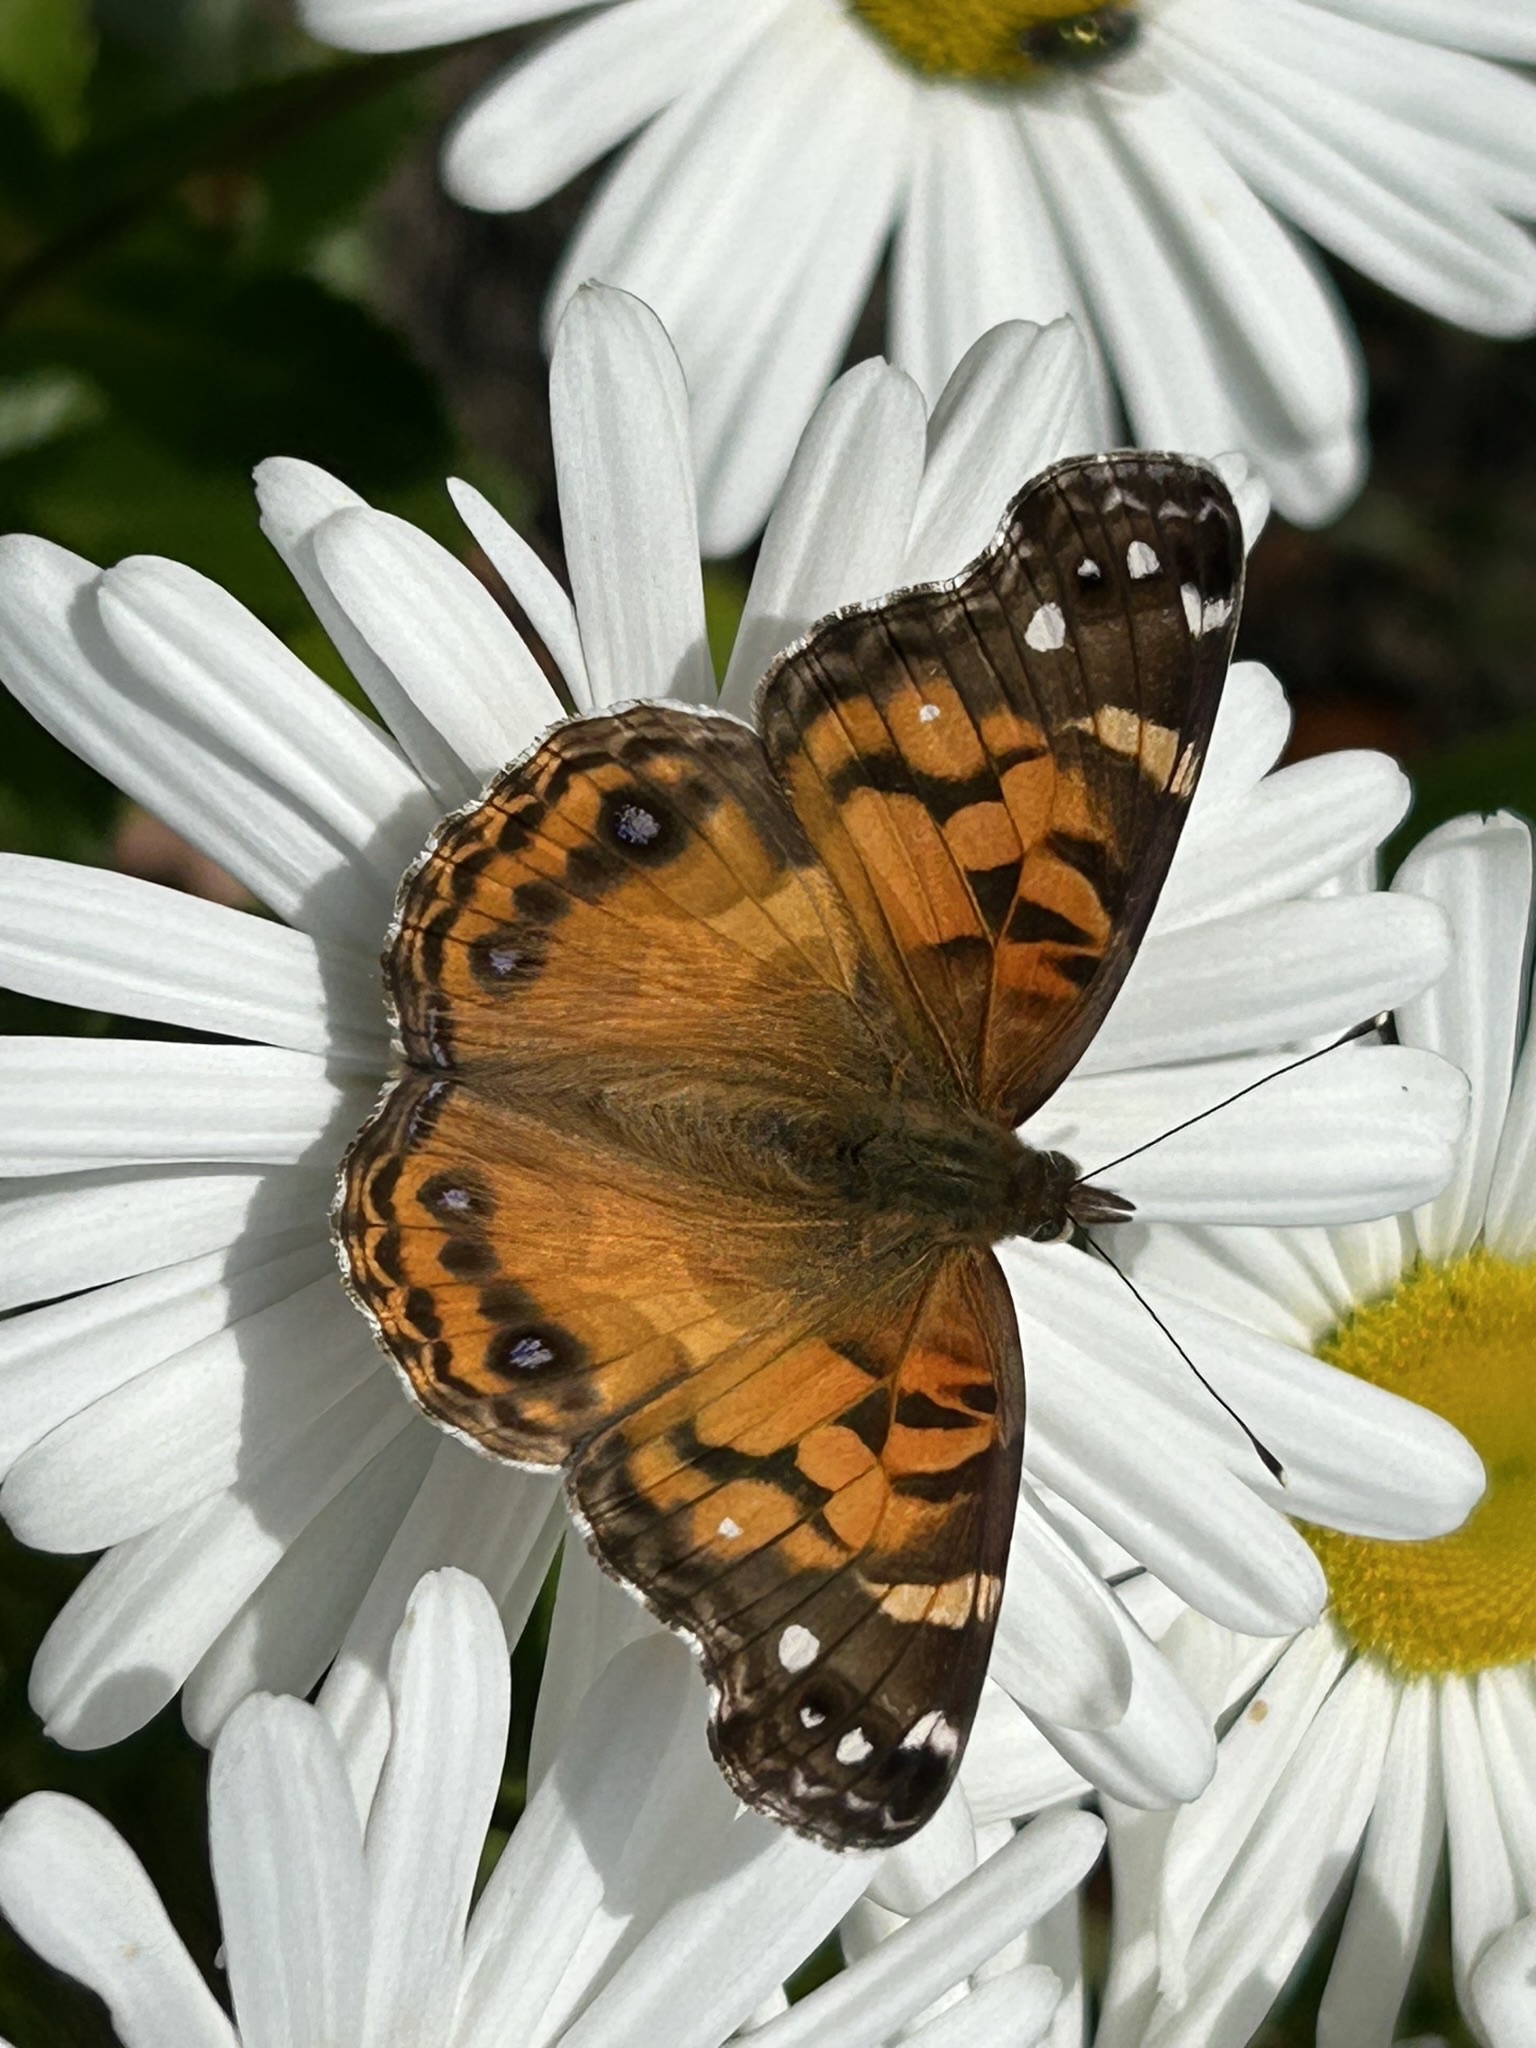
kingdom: Animalia
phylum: Arthropoda
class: Insecta
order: Lepidoptera
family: Nymphalidae
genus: Vanessa
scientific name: Vanessa virginiensis
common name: American lady
